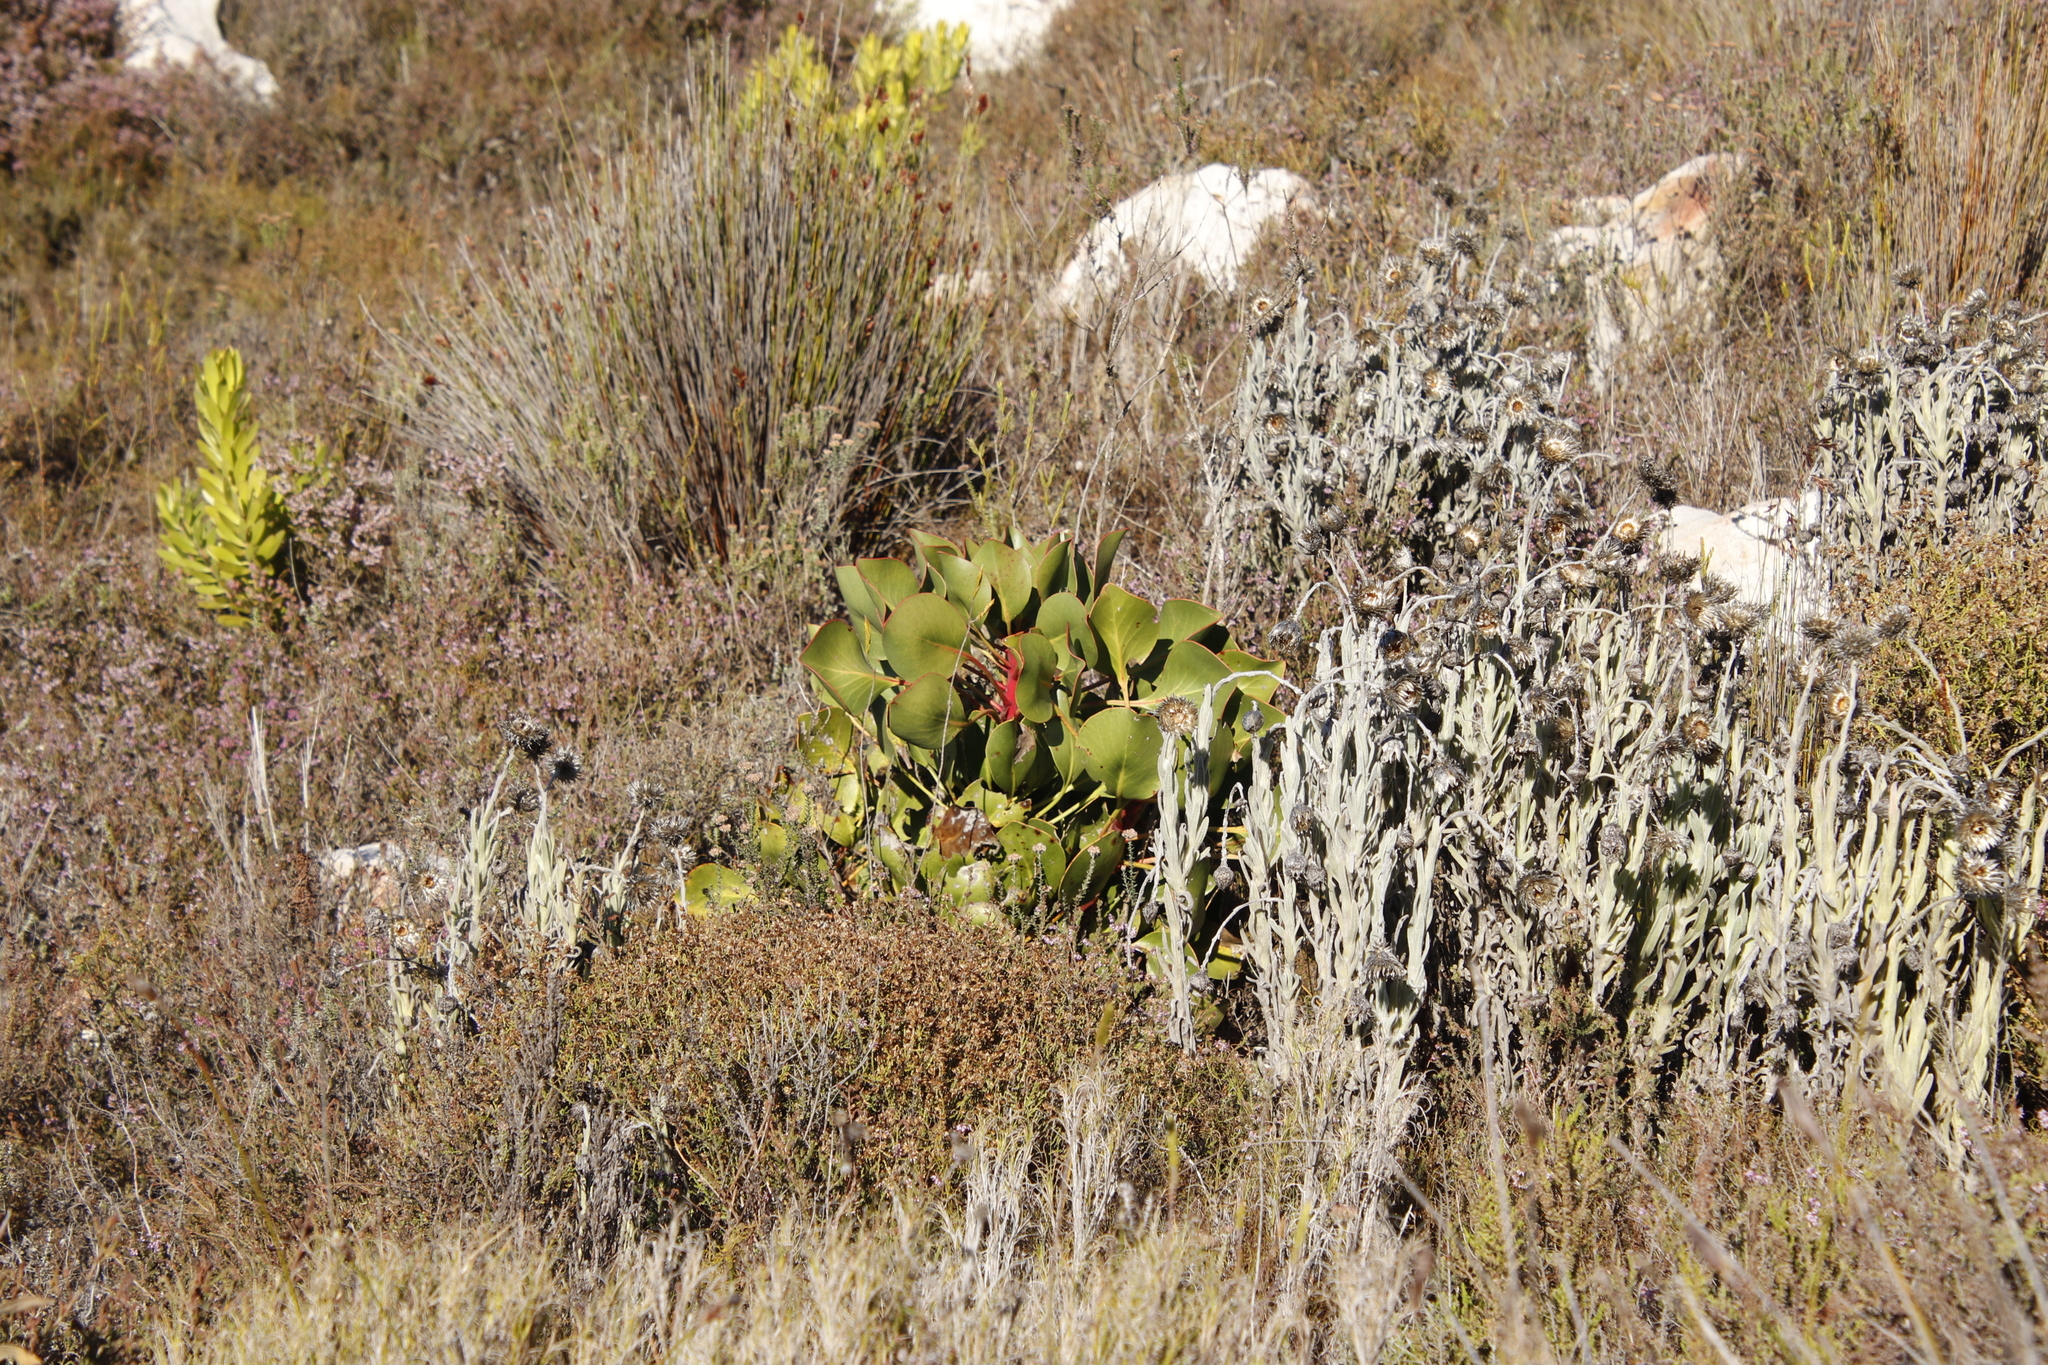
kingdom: Plantae
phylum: Tracheophyta
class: Magnoliopsida
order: Proteales
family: Proteaceae
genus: Protea
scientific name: Protea cynaroides
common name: King protea
